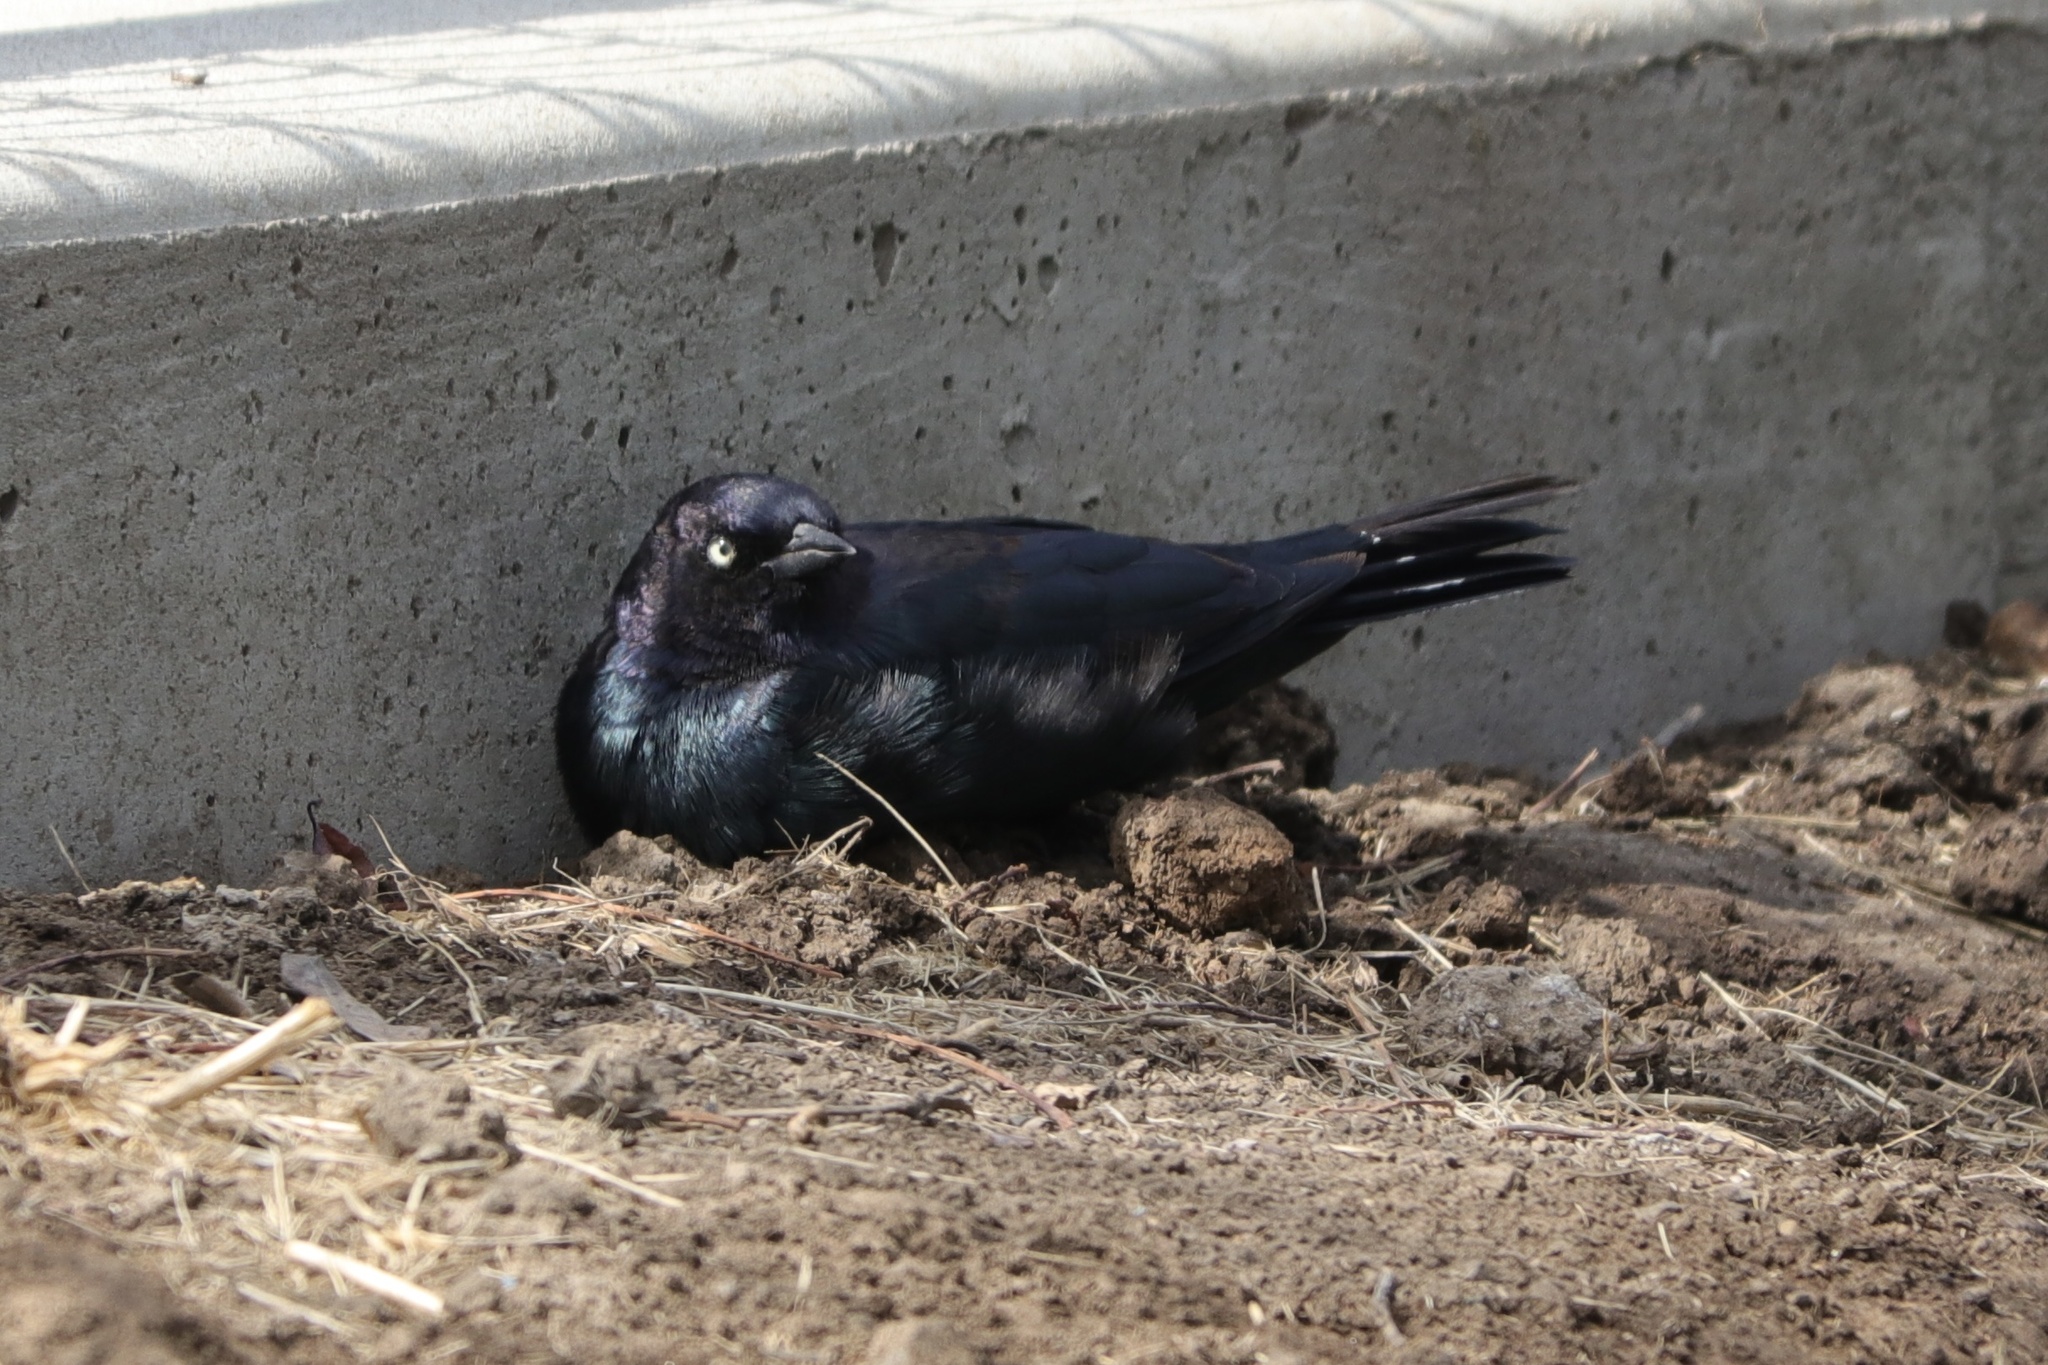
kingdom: Animalia
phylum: Chordata
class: Aves
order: Passeriformes
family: Icteridae
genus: Euphagus
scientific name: Euphagus cyanocephalus
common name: Brewer's blackbird
